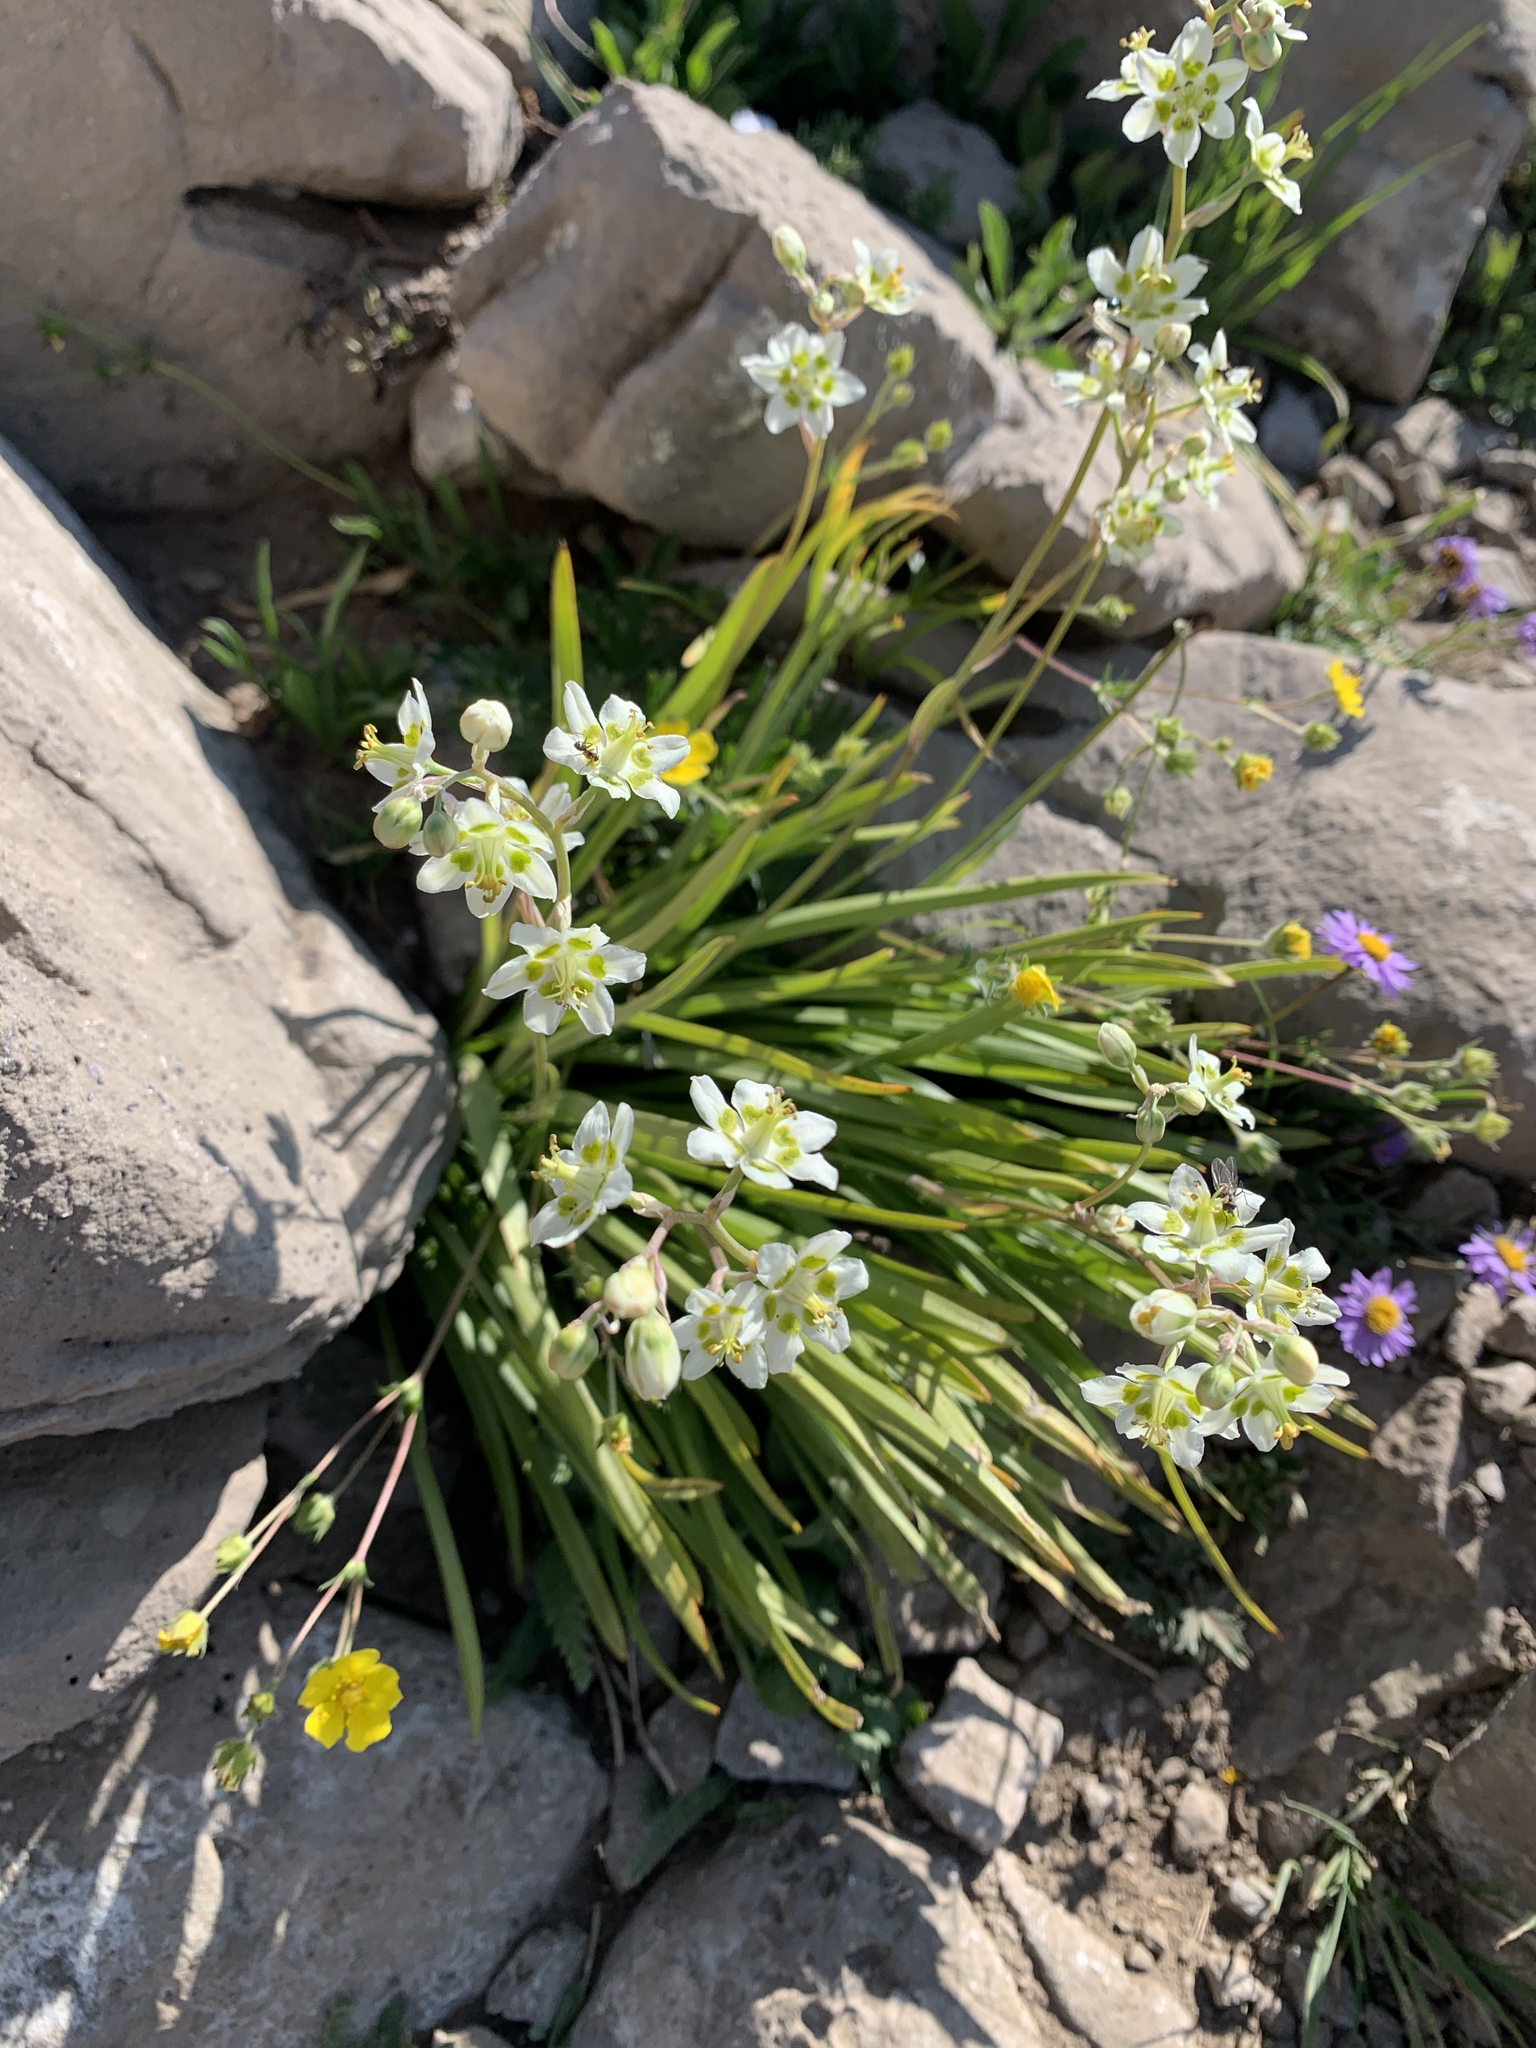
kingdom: Plantae
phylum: Tracheophyta
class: Liliopsida
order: Liliales
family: Melanthiaceae
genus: Anticlea
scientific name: Anticlea elegans
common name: Mountain death camas
